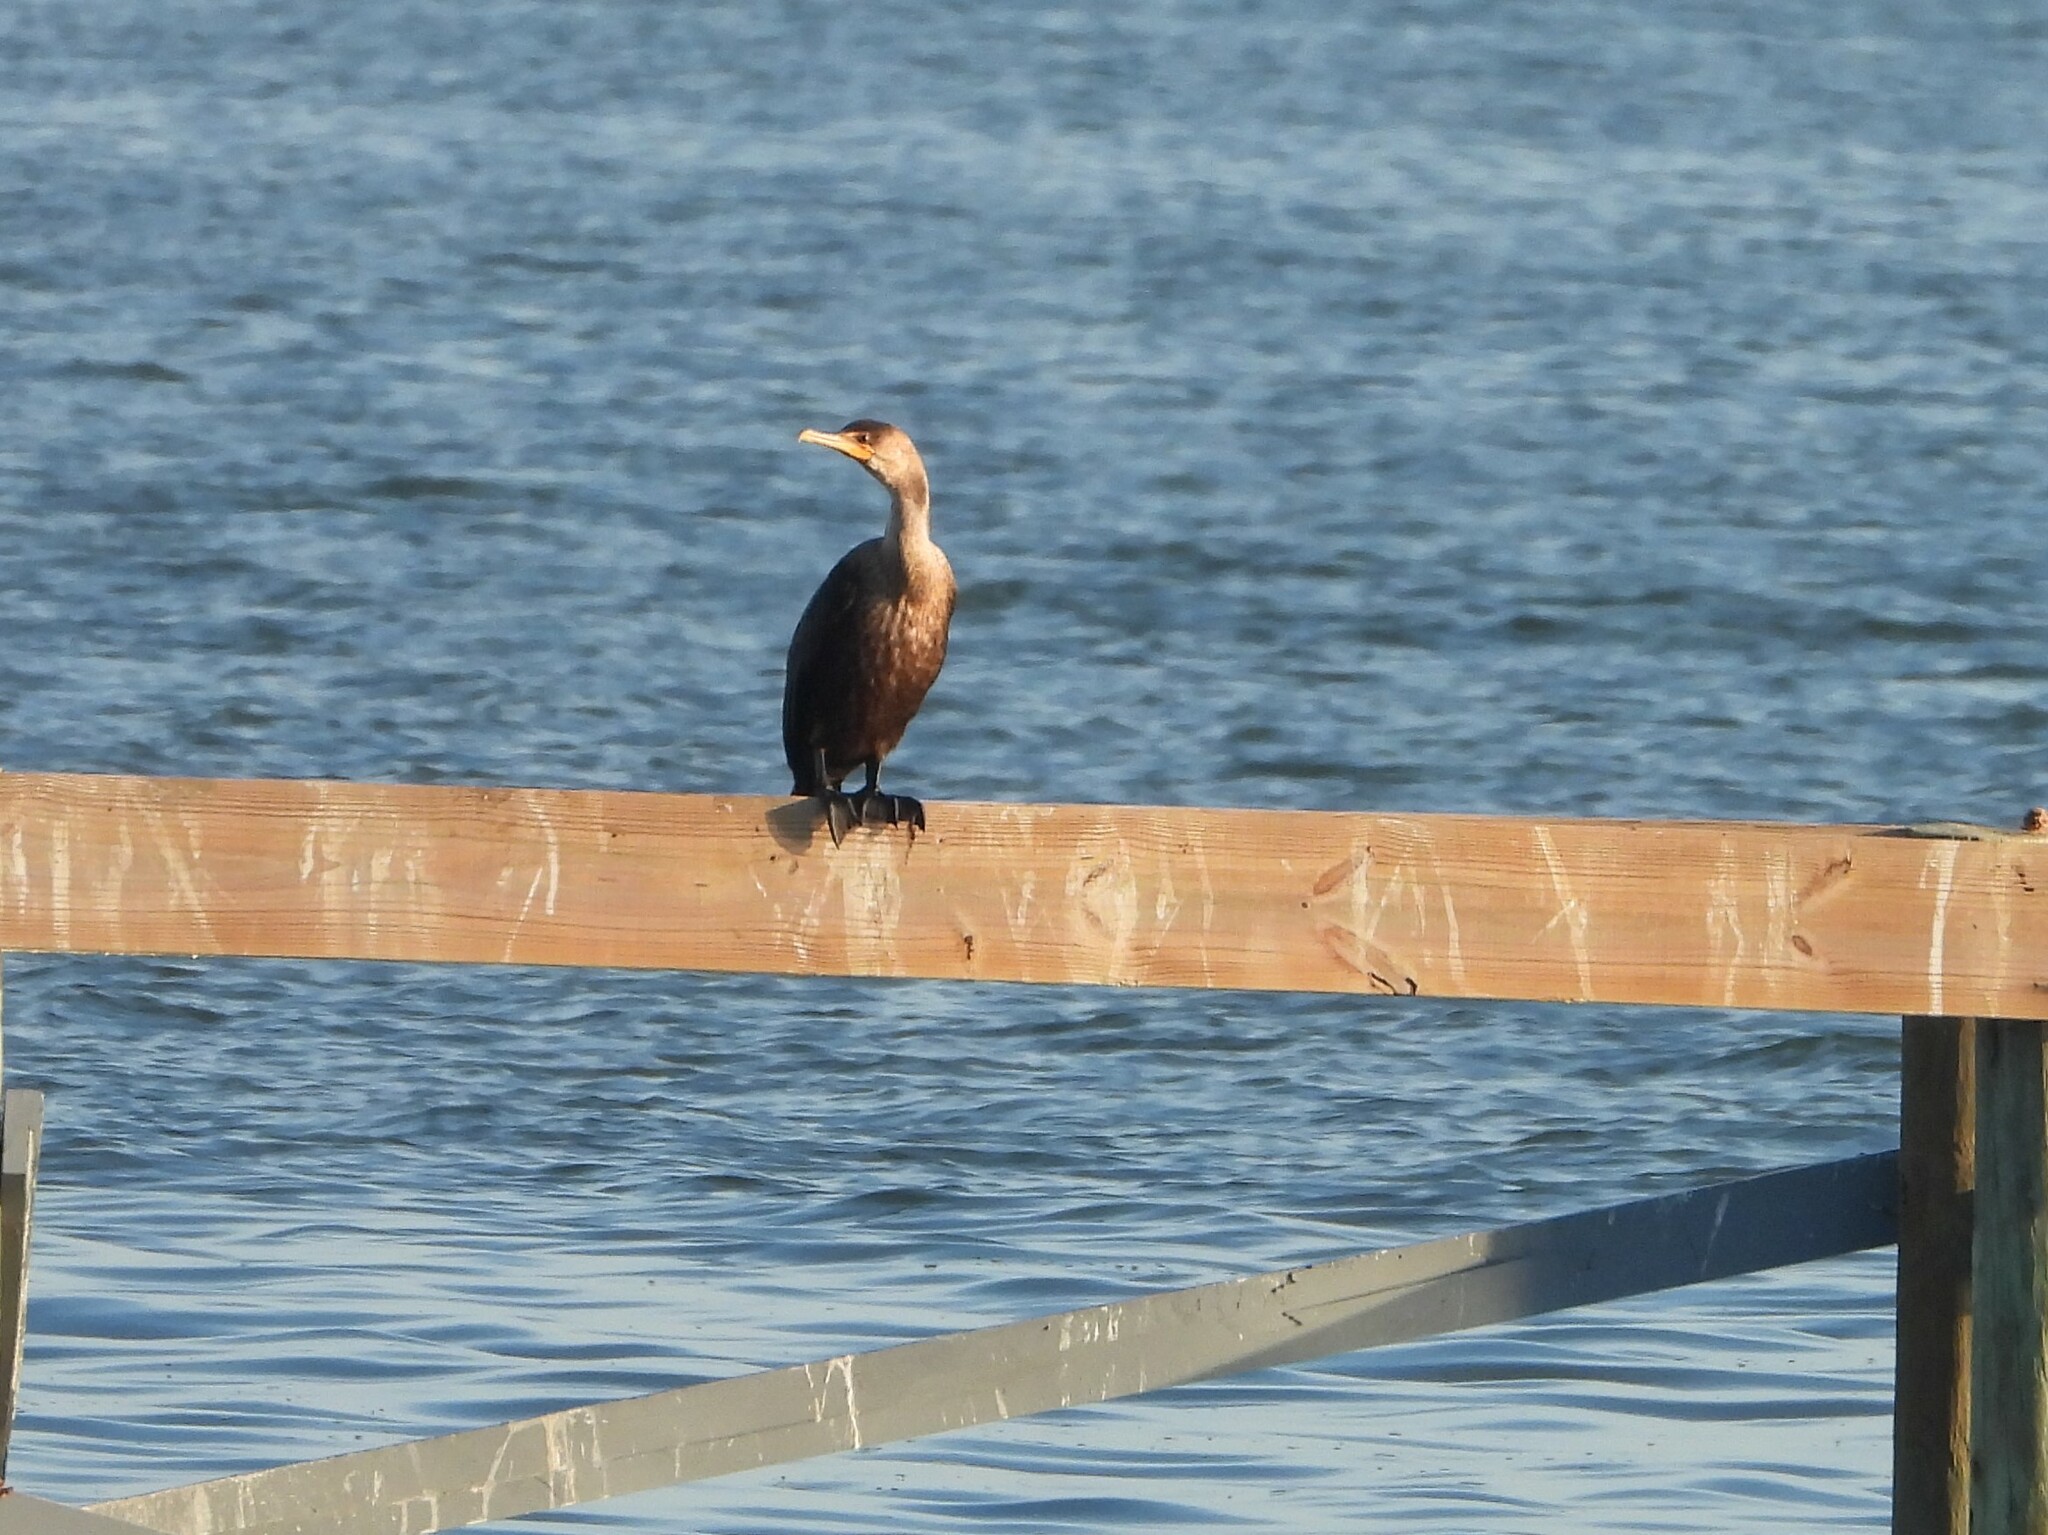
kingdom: Animalia
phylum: Chordata
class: Aves
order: Suliformes
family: Phalacrocoracidae
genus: Phalacrocorax
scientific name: Phalacrocorax auritus
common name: Double-crested cormorant
